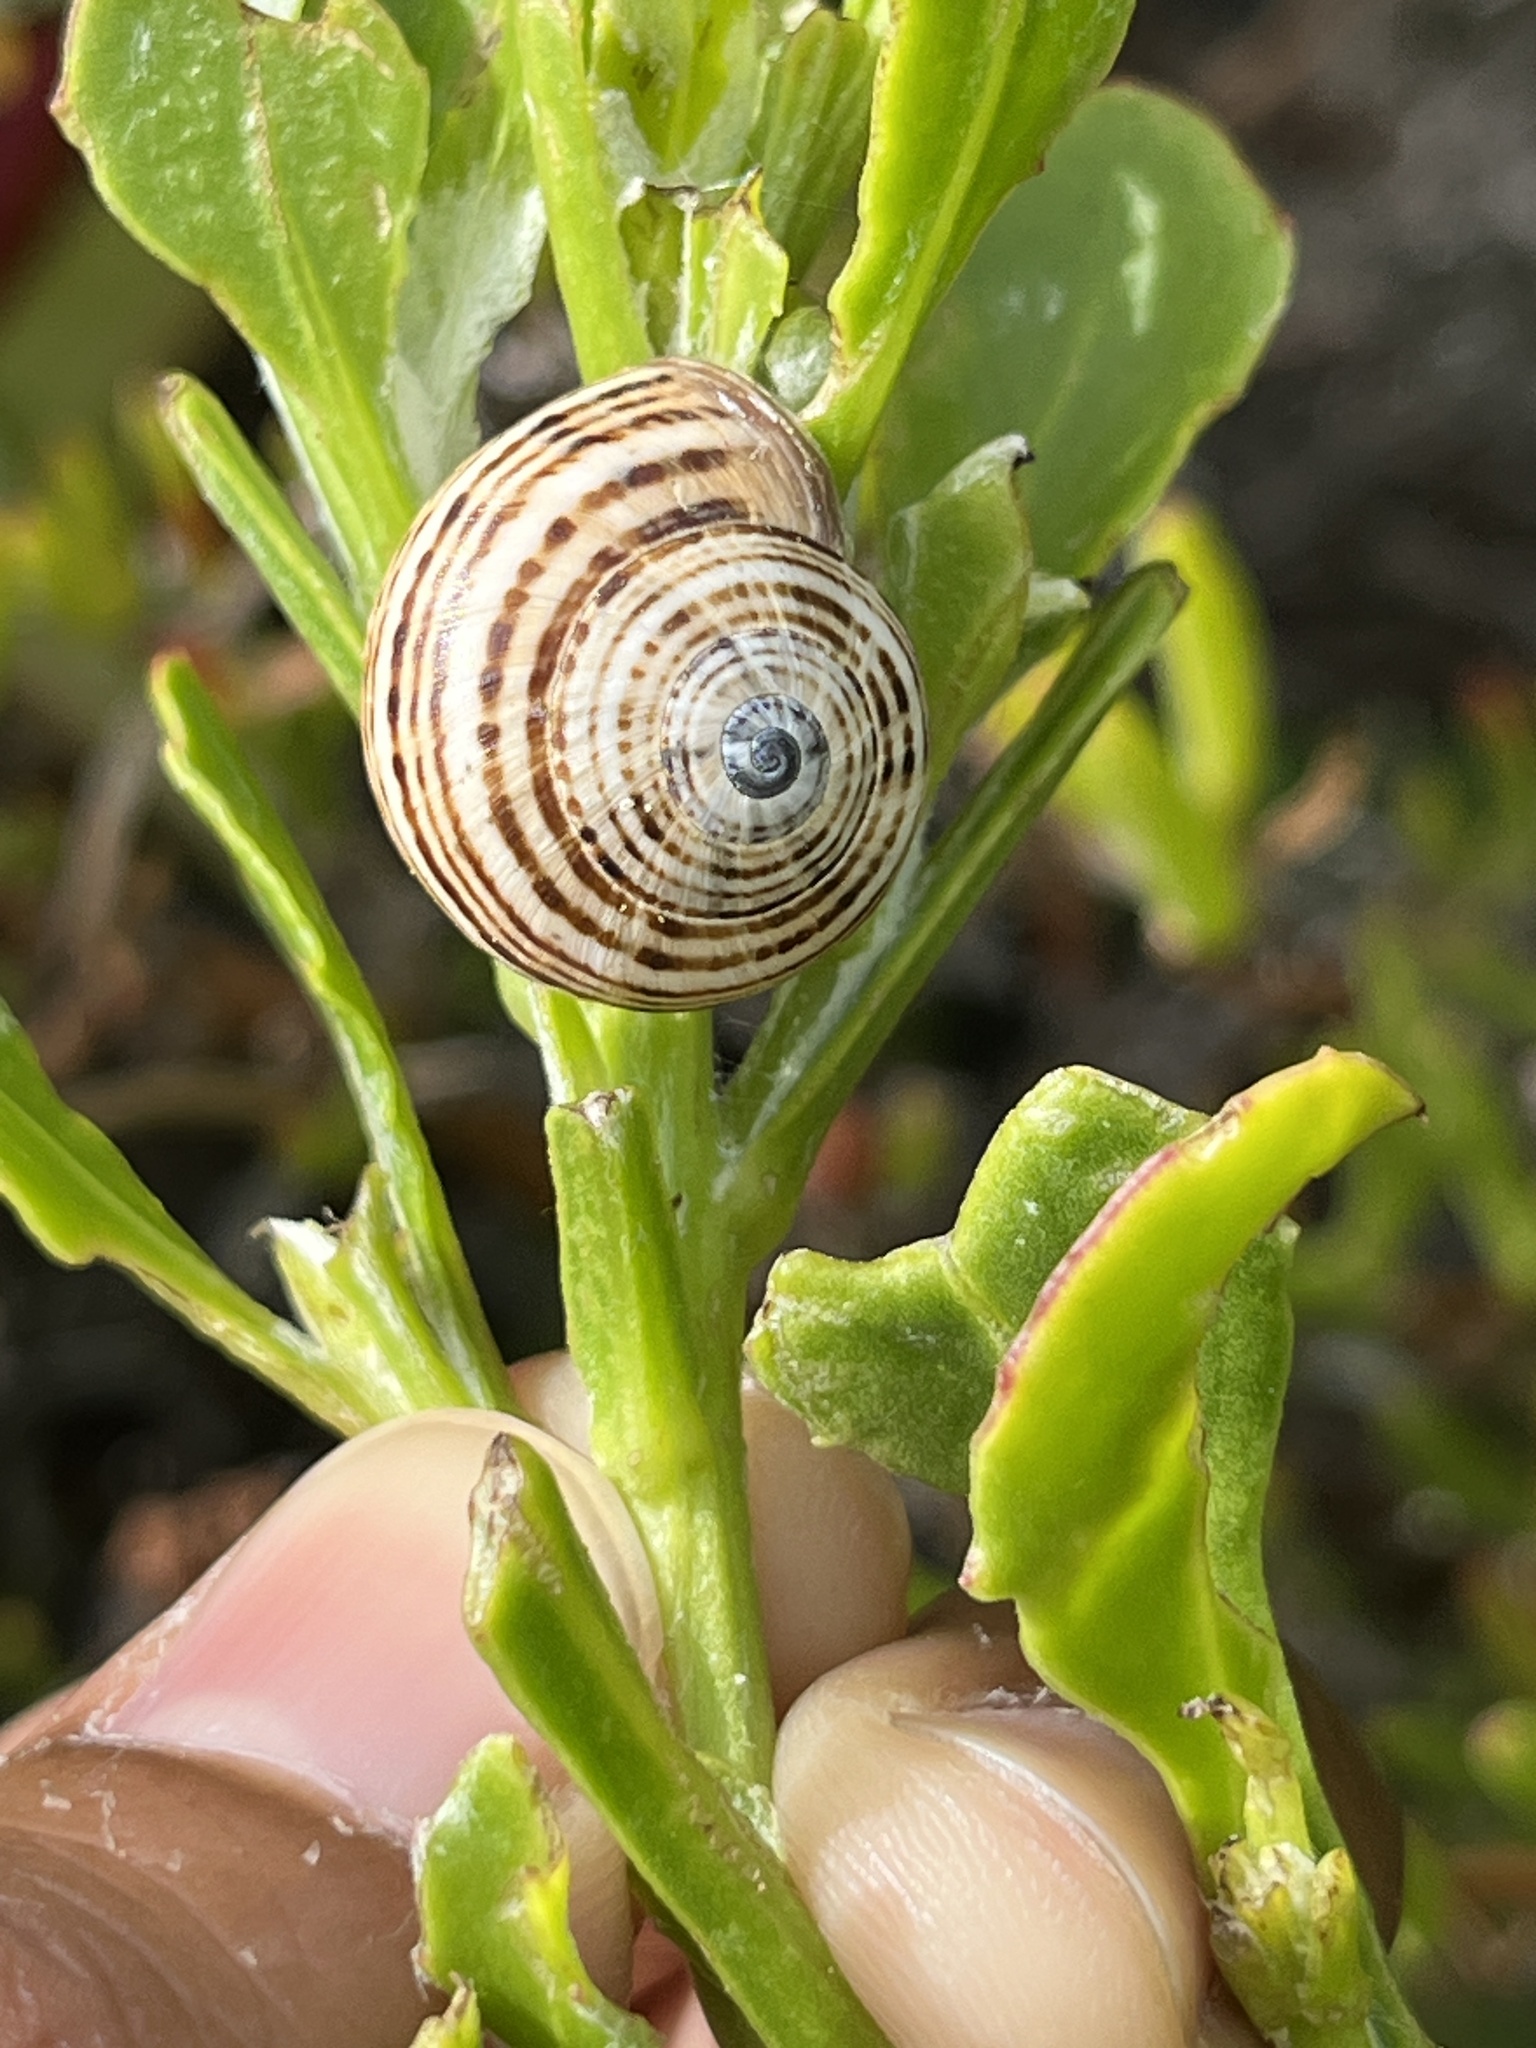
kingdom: Animalia
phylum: Mollusca
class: Gastropoda
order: Stylommatophora
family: Helicidae
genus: Theba
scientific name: Theba pisana
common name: White snail
